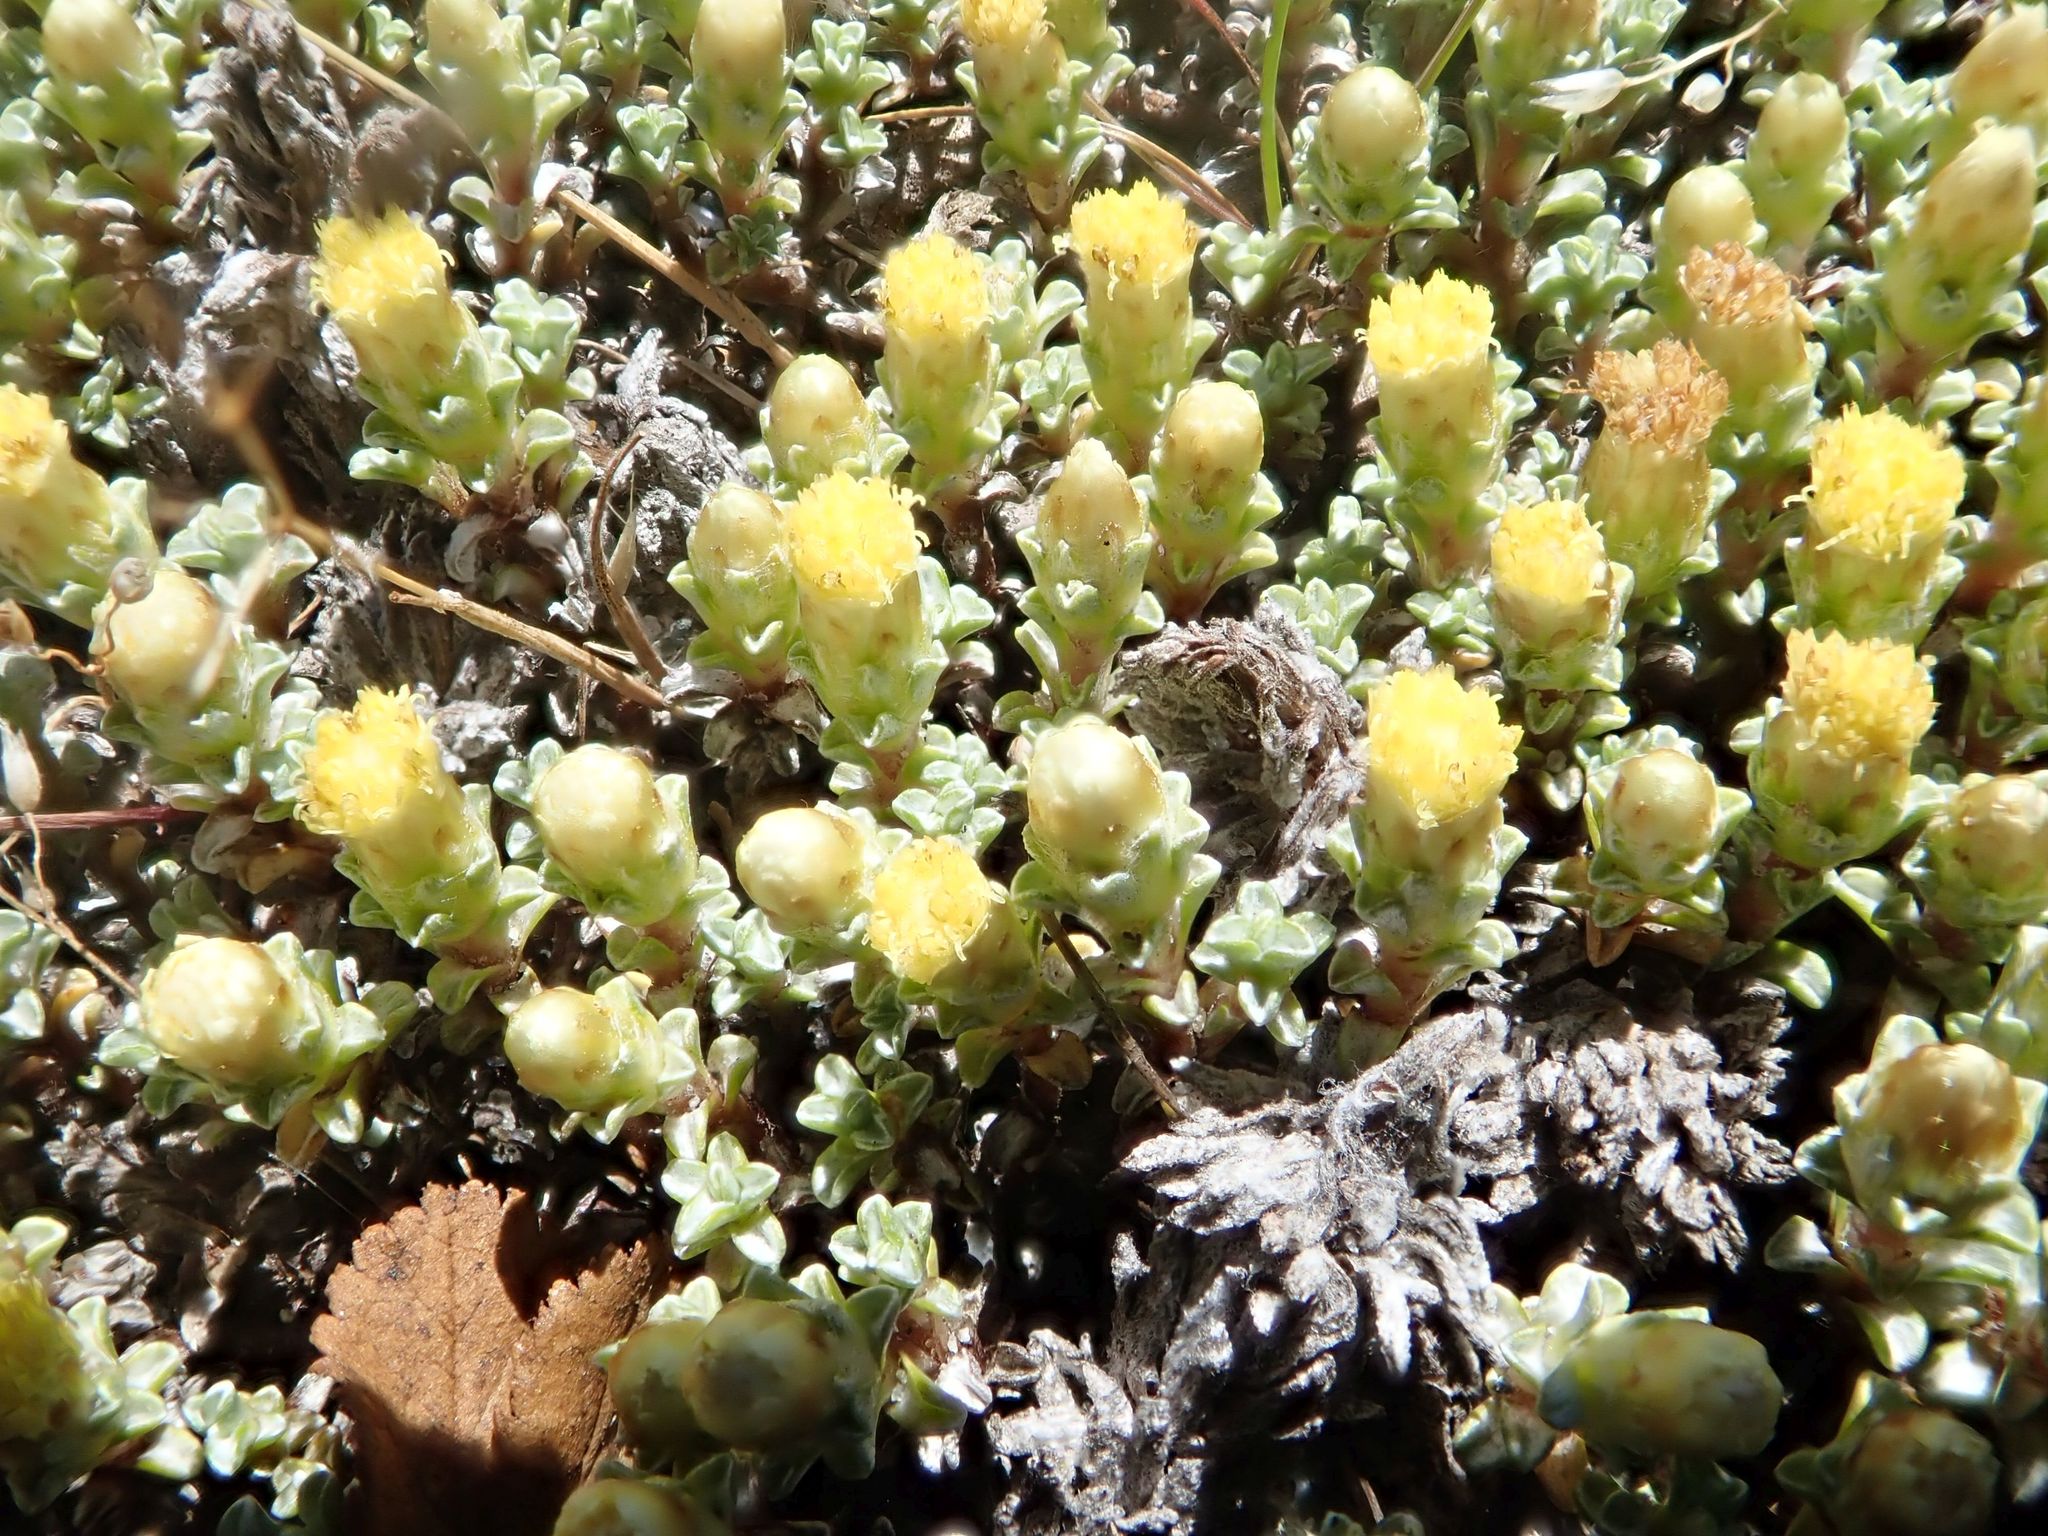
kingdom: Plantae
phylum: Tracheophyta
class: Magnoliopsida
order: Asterales
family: Asteraceae
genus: Raoulia
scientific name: Raoulia australis
